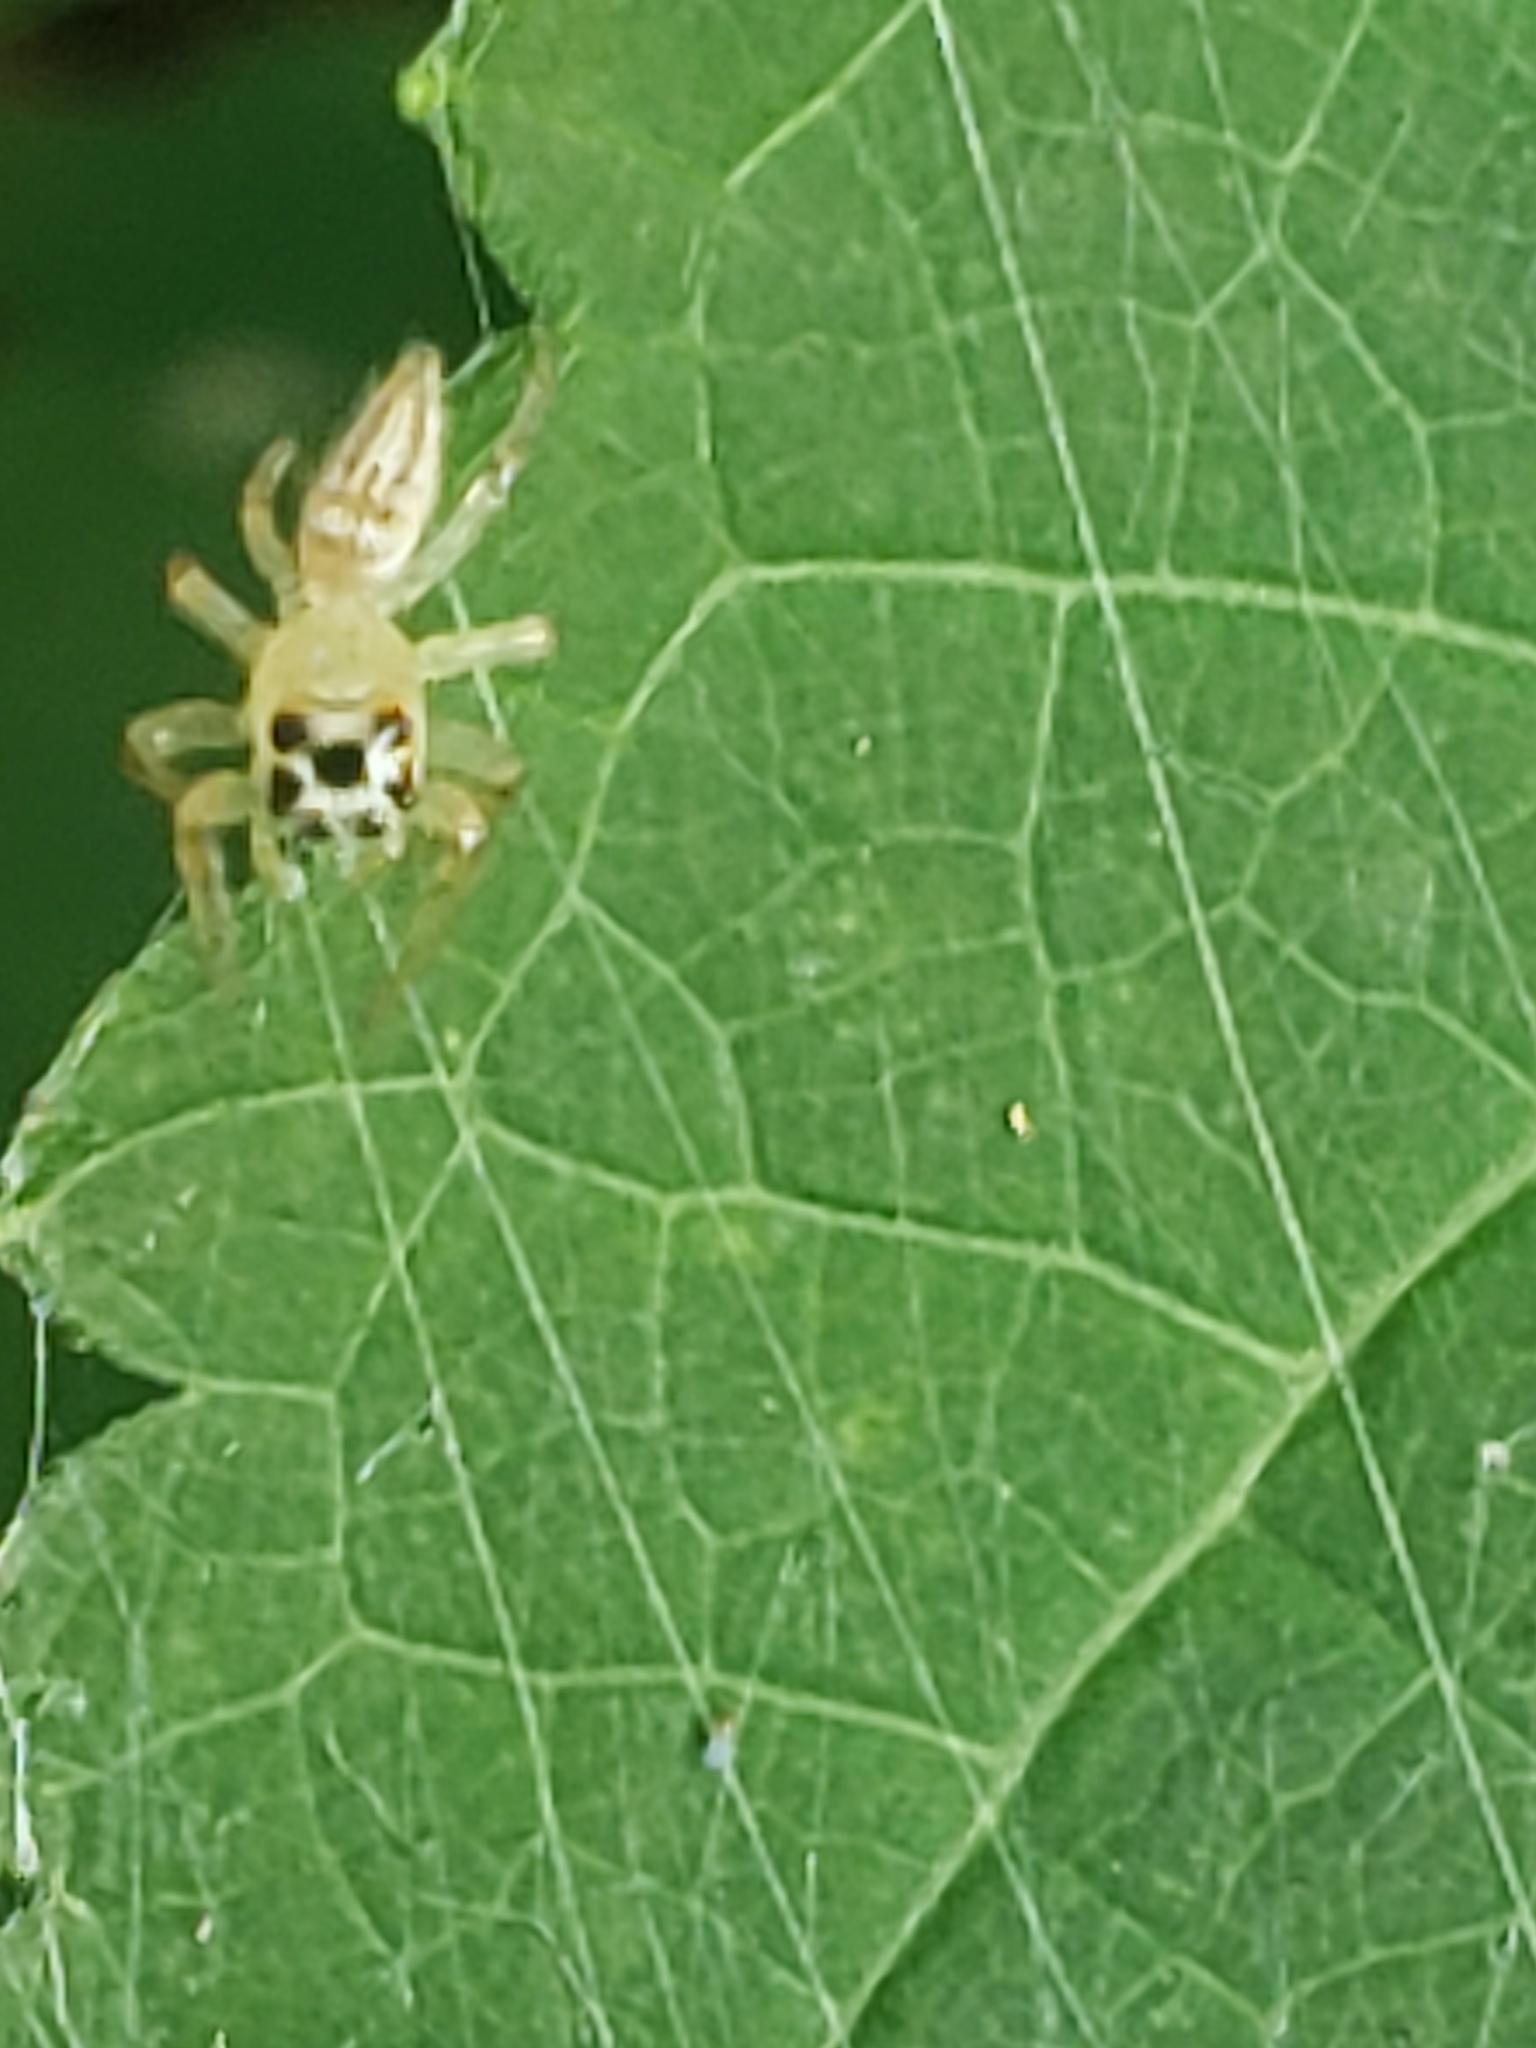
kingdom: Animalia
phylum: Arthropoda
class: Arachnida
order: Araneae
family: Salticidae
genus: Colonus
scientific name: Colonus sylvanus
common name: Jumping spiders
